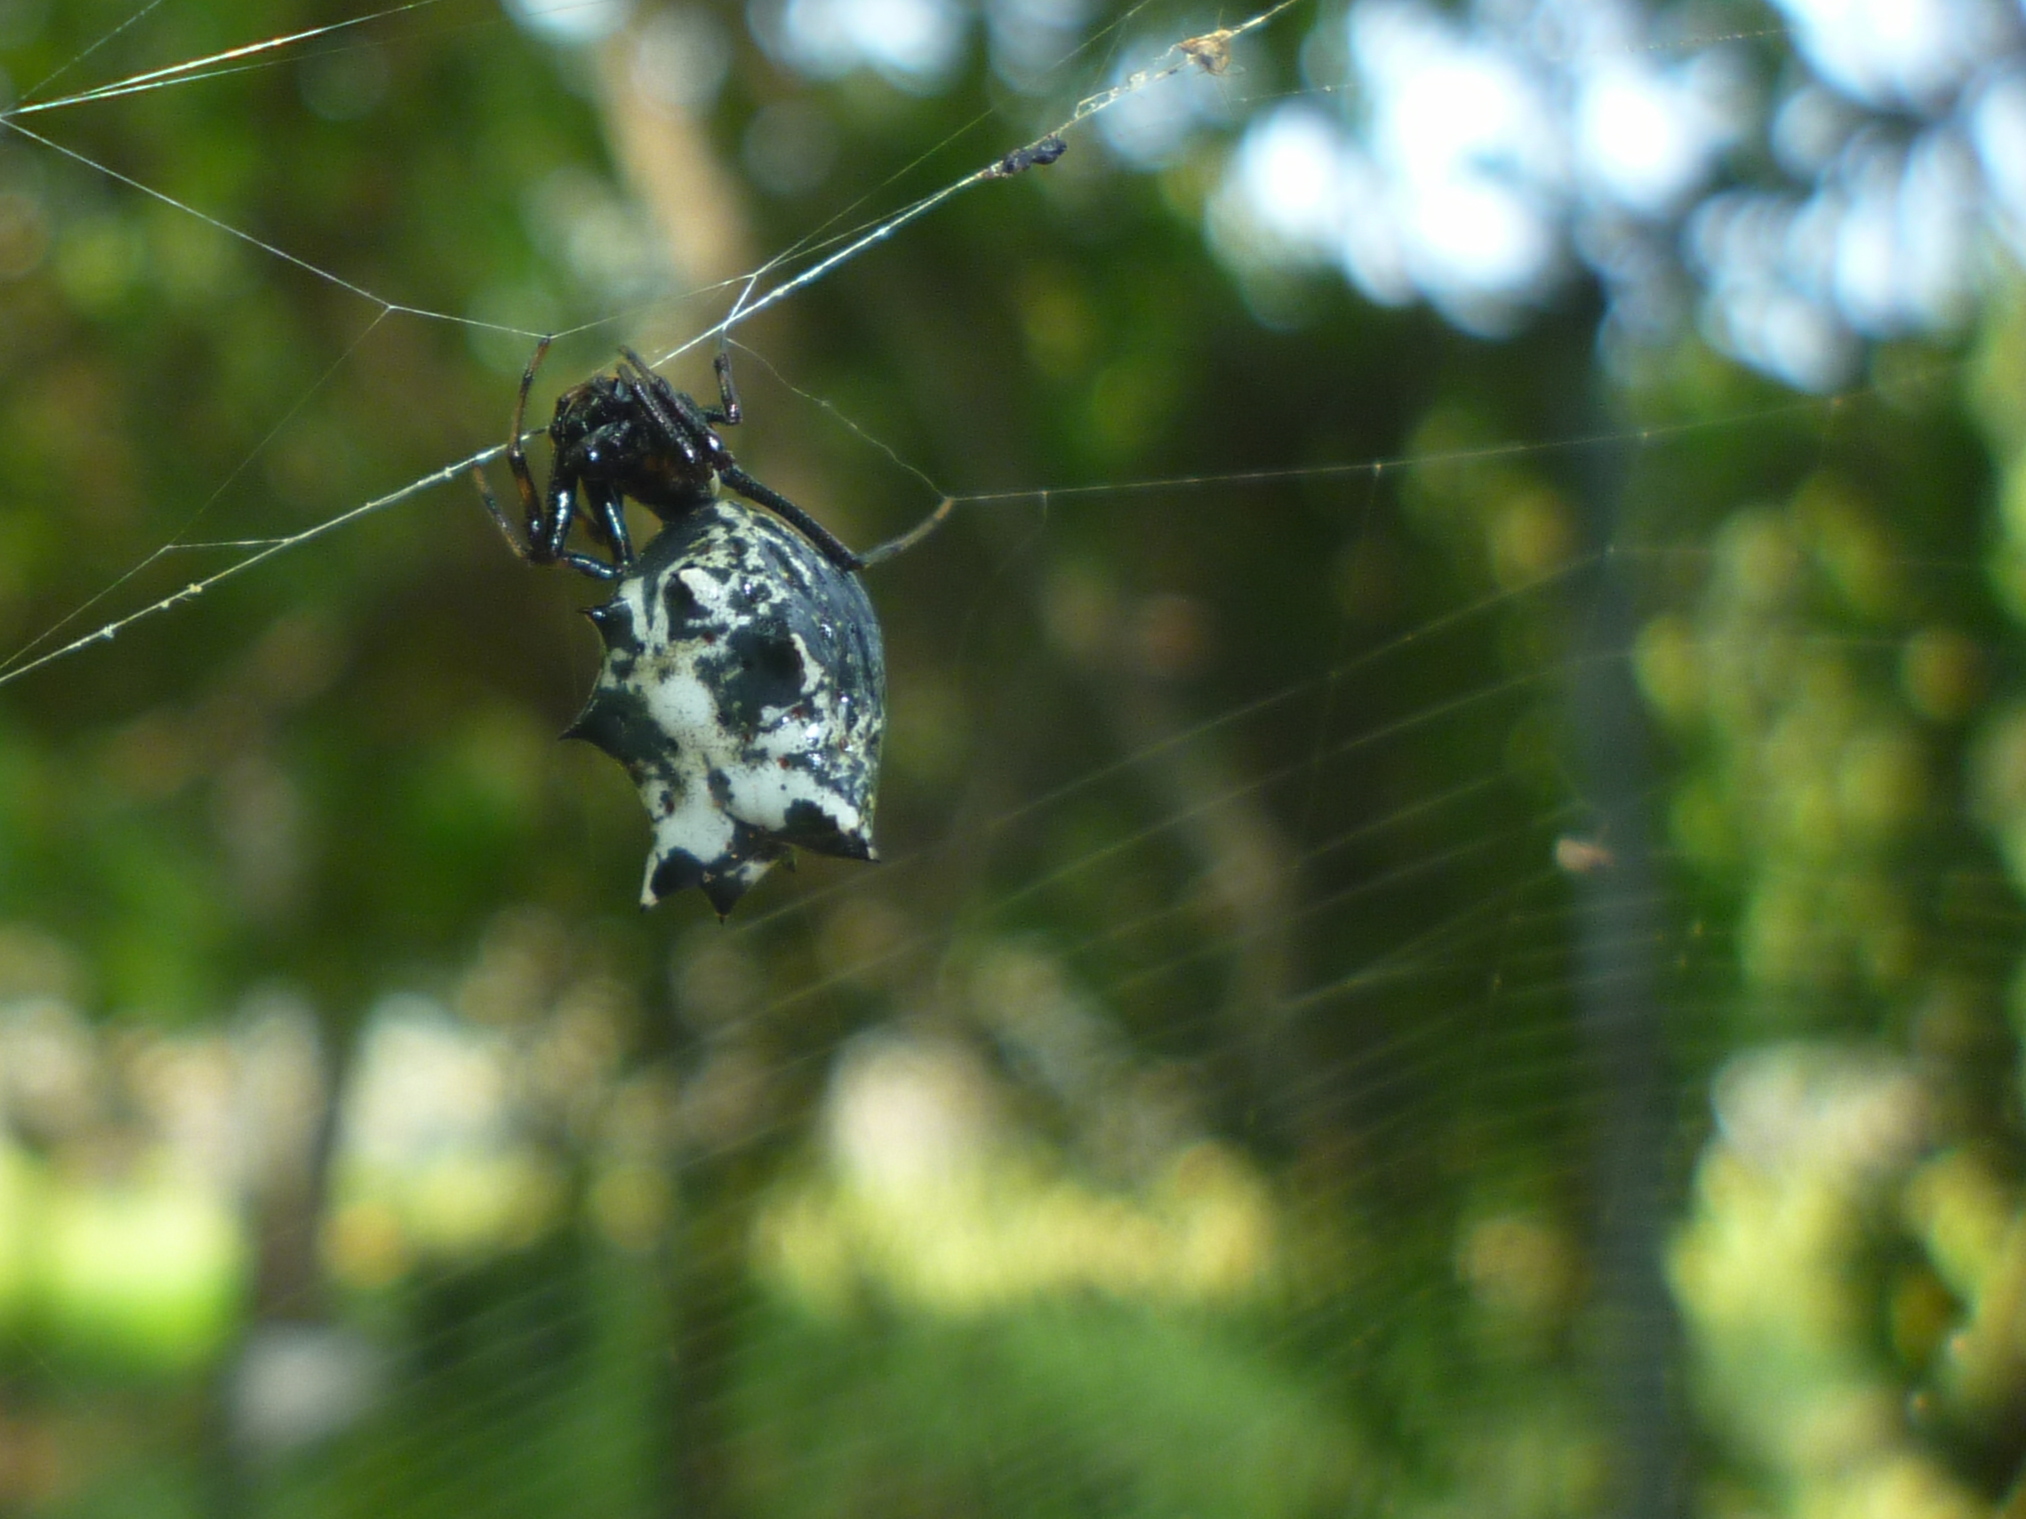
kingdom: Animalia
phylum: Arthropoda
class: Arachnida
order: Araneae
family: Araneidae
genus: Micrathena
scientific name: Micrathena gracilis
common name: Orb weavers
